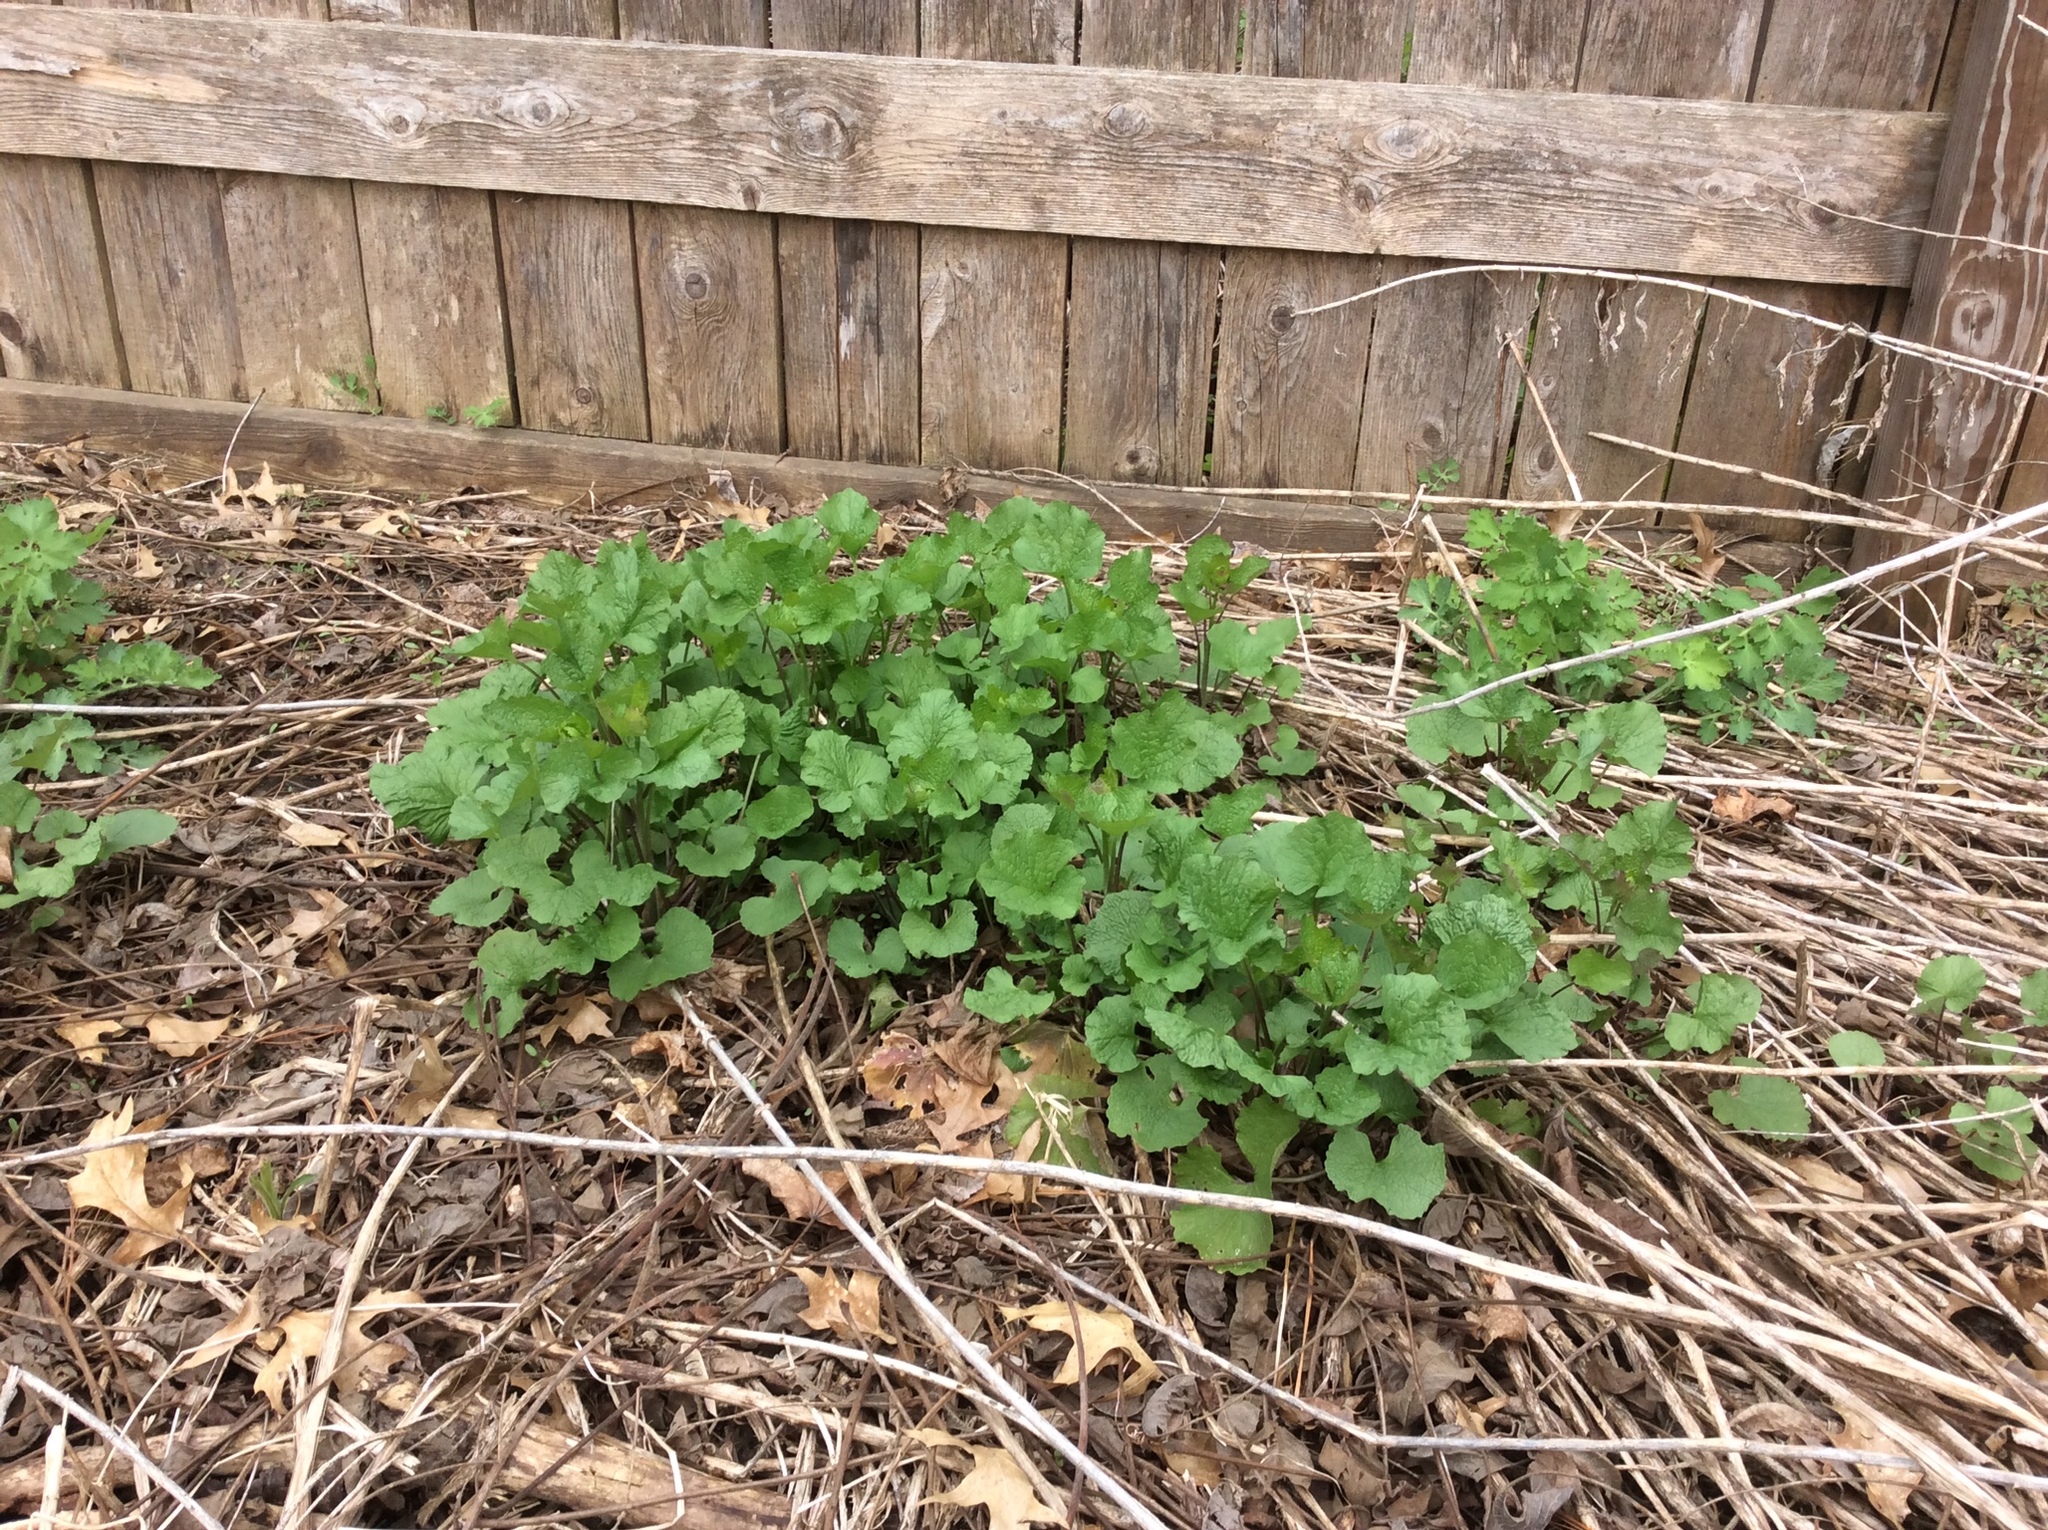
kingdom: Plantae
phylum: Tracheophyta
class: Magnoliopsida
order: Brassicales
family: Brassicaceae
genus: Alliaria
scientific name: Alliaria petiolata
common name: Garlic mustard
